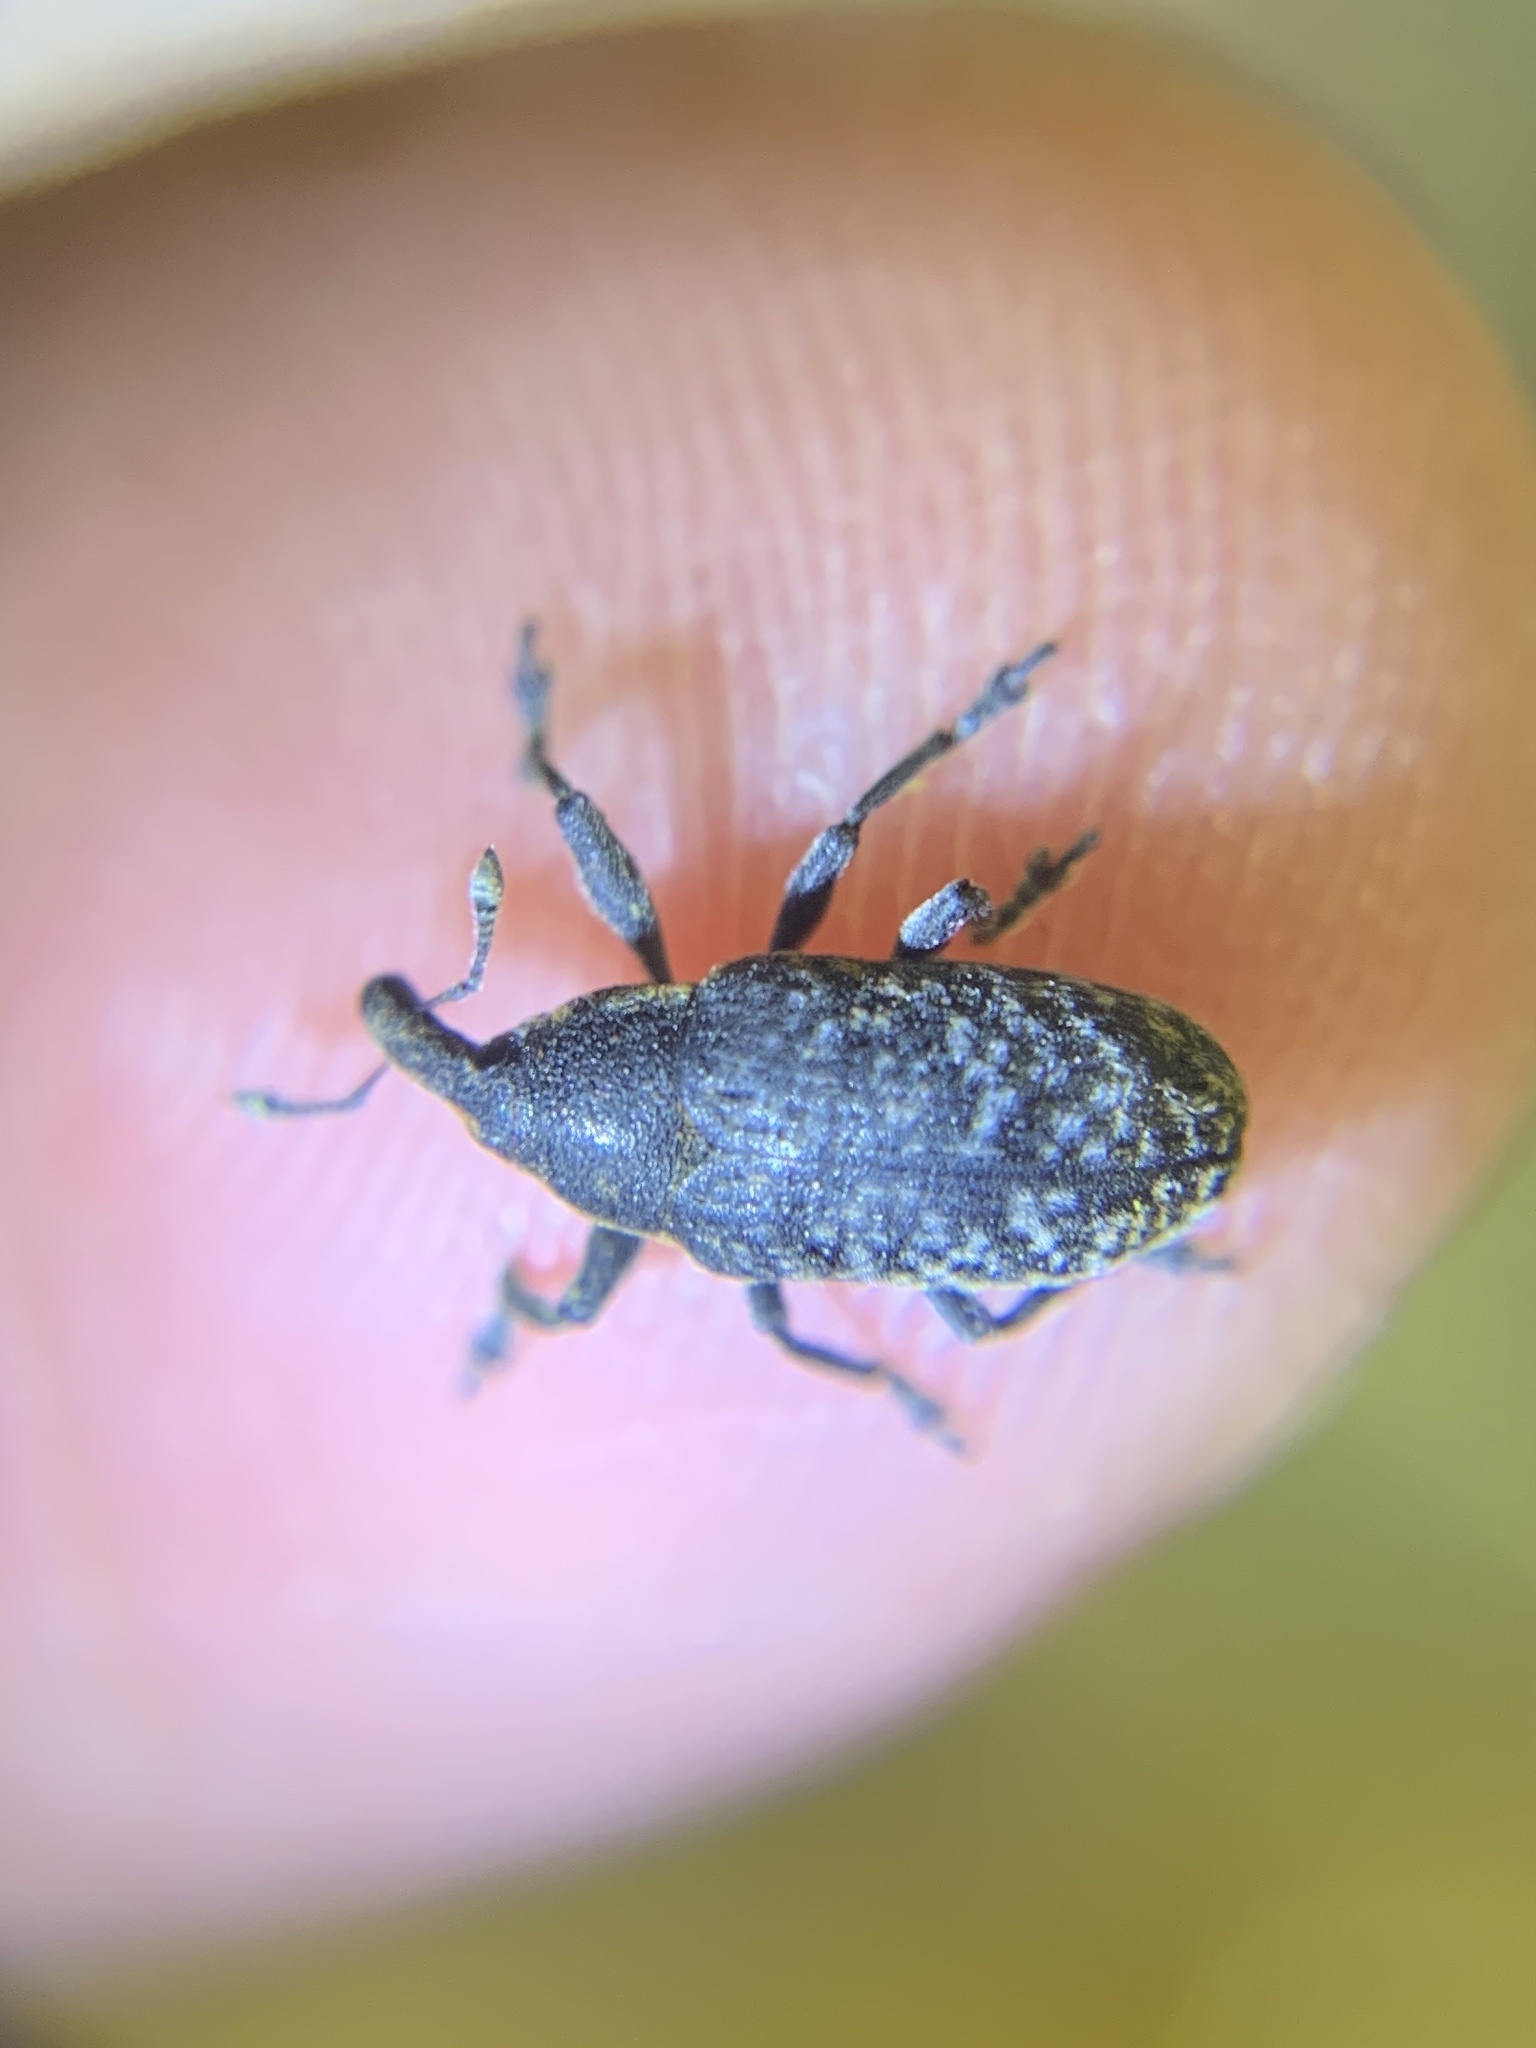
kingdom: Animalia
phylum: Arthropoda
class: Insecta
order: Coleoptera
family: Curculionidae
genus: Larinus
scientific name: Larinus carlinae
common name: Weevil
